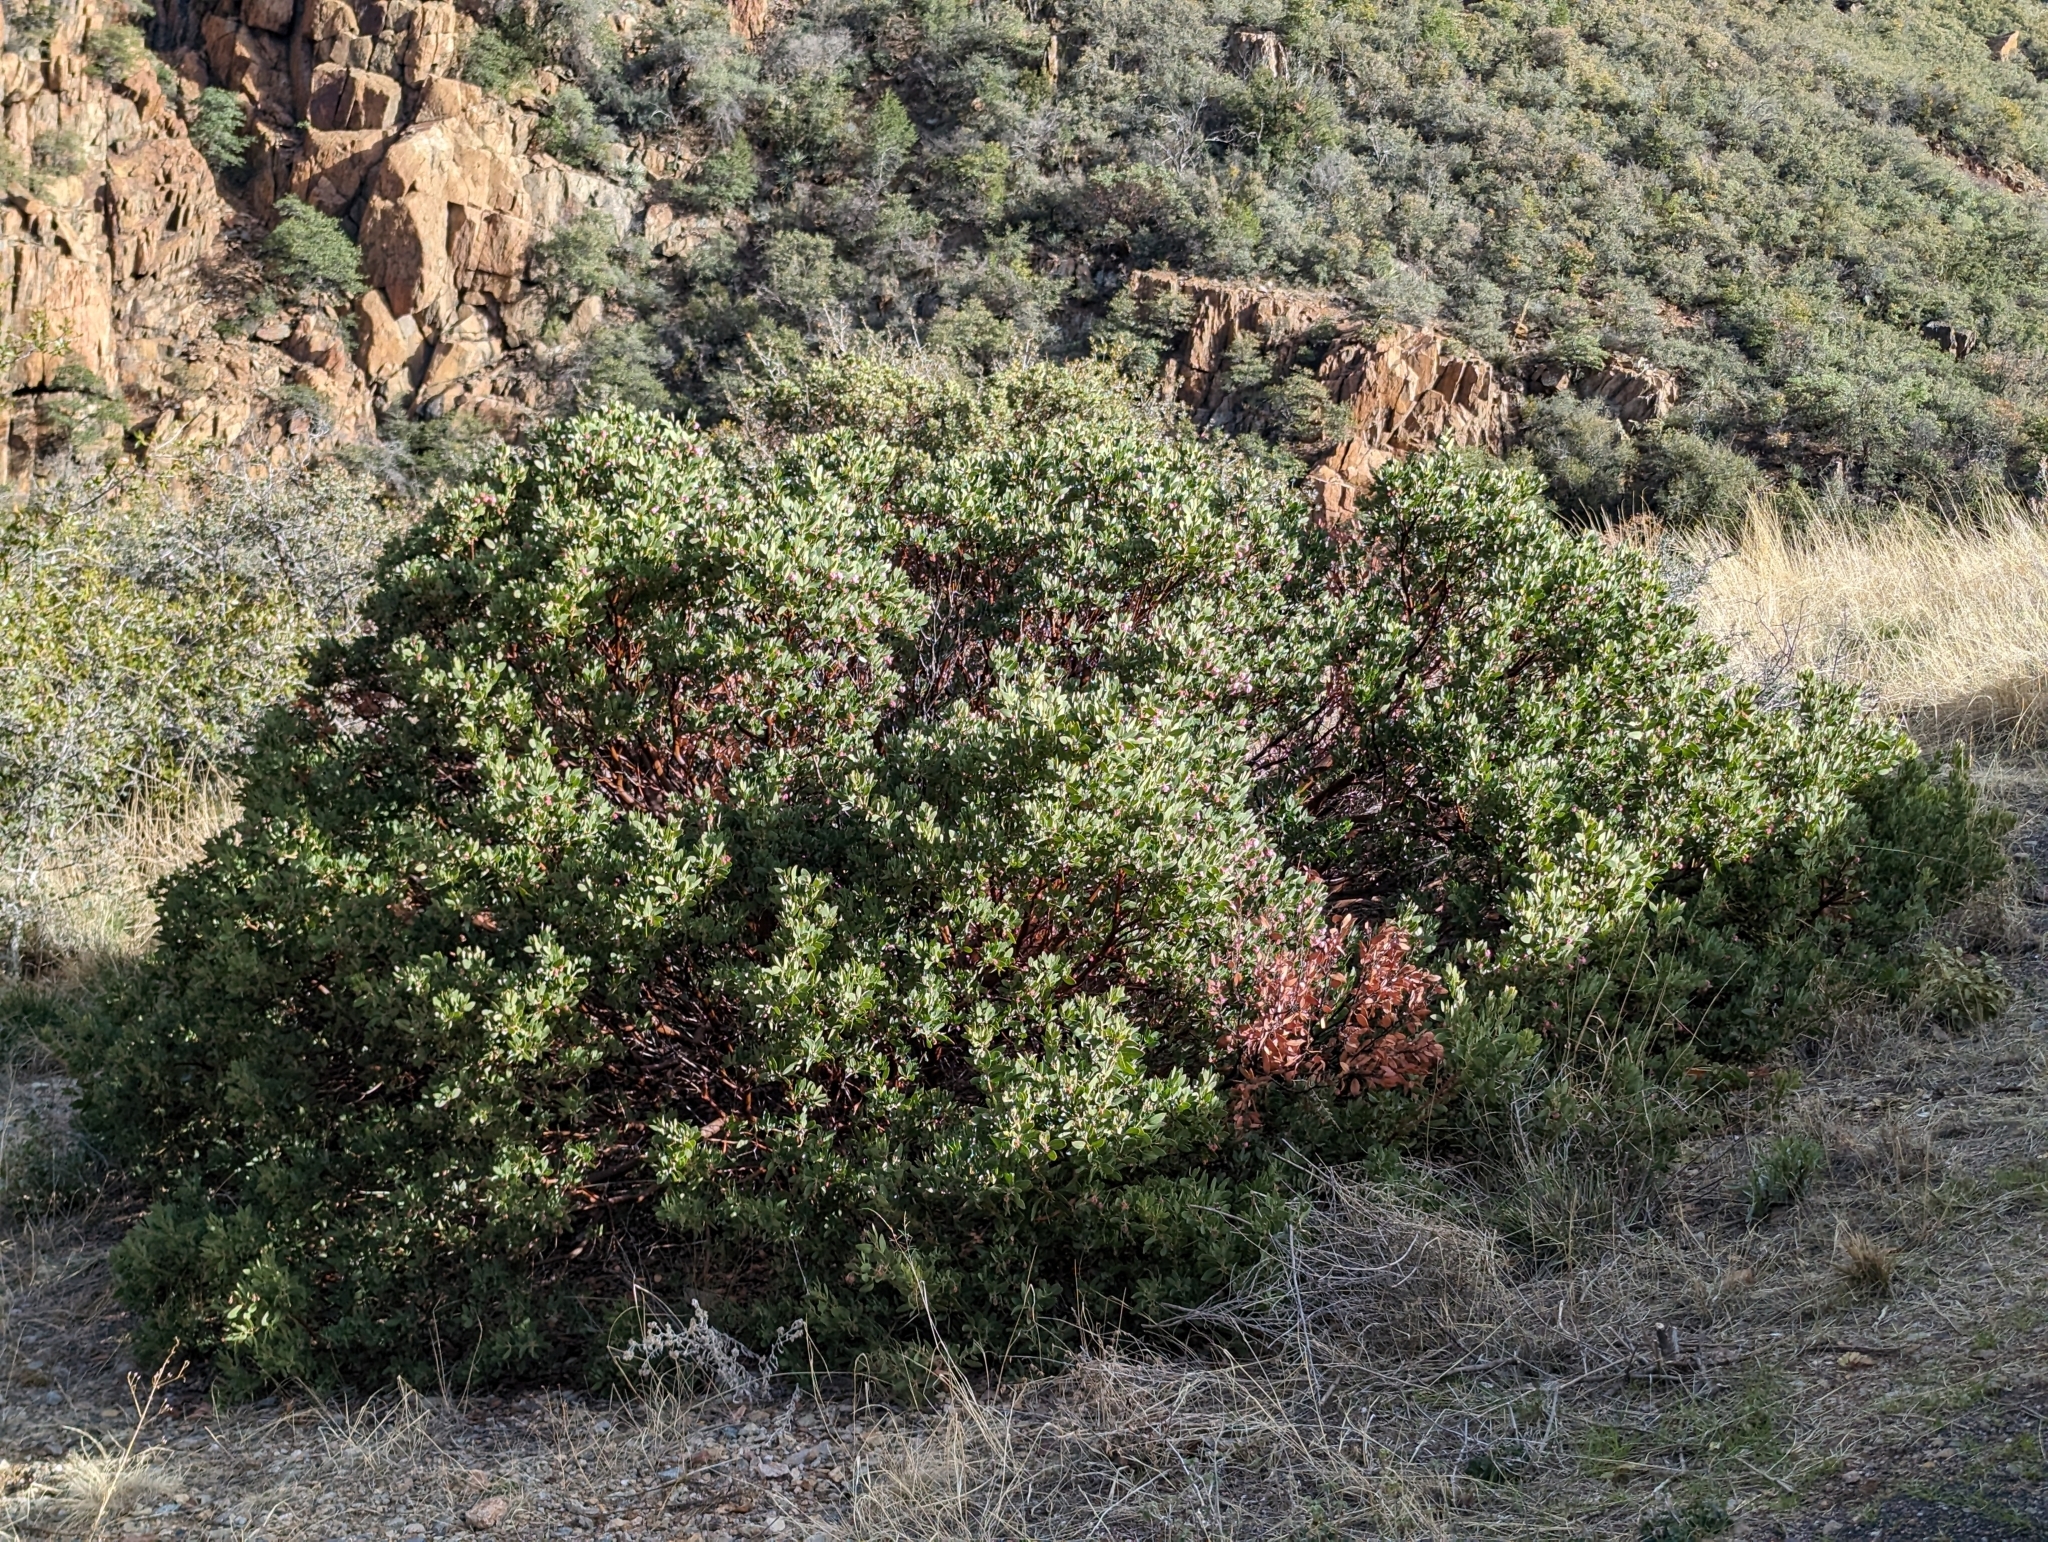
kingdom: Plantae
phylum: Tracheophyta
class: Magnoliopsida
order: Ericales
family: Ericaceae
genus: Arctostaphylos
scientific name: Arctostaphylos pungens
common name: Mexican manzanita
